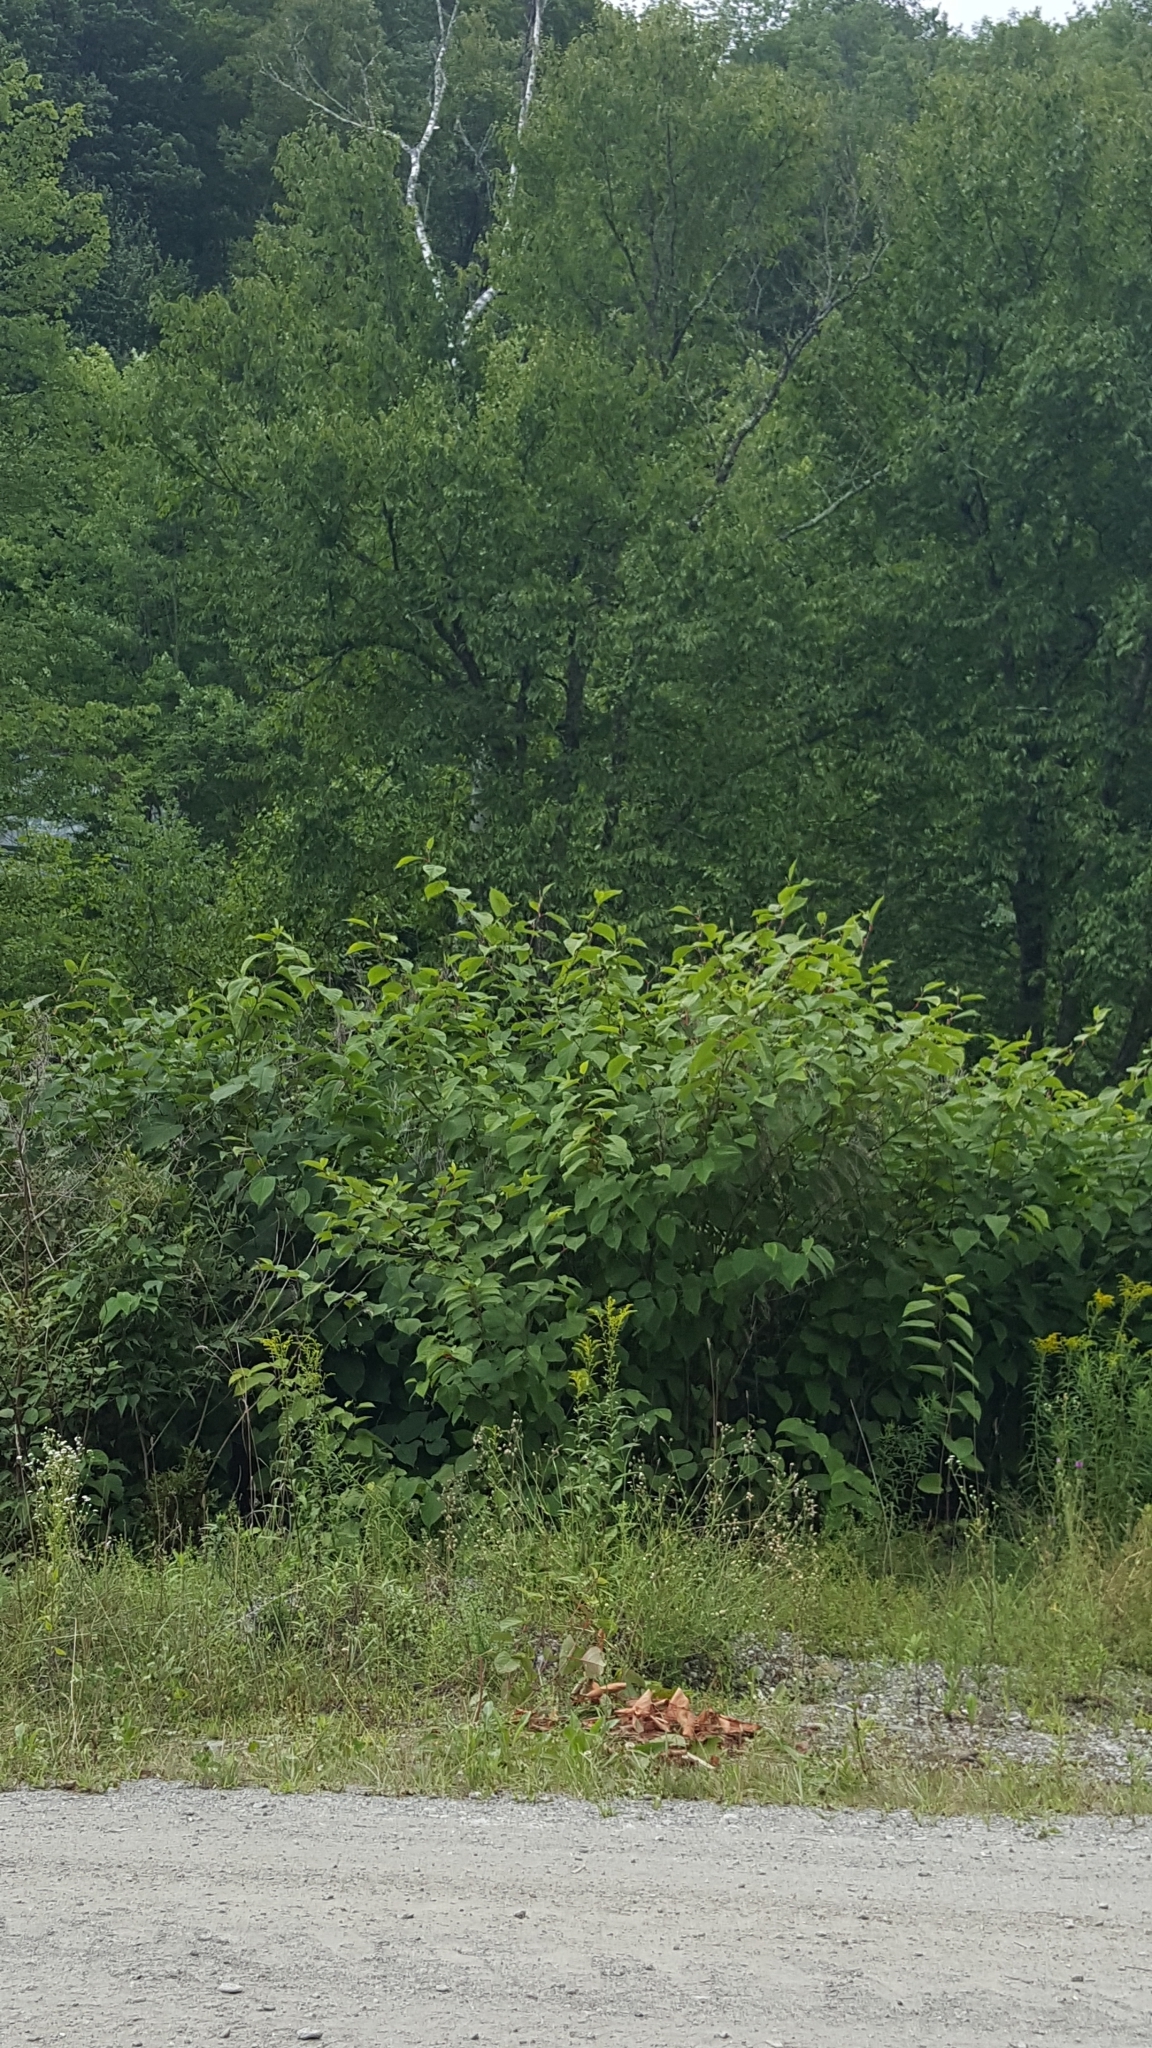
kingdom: Plantae
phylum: Tracheophyta
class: Magnoliopsida
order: Caryophyllales
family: Polygonaceae
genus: Reynoutria
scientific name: Reynoutria japonica
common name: Japanese knotweed
